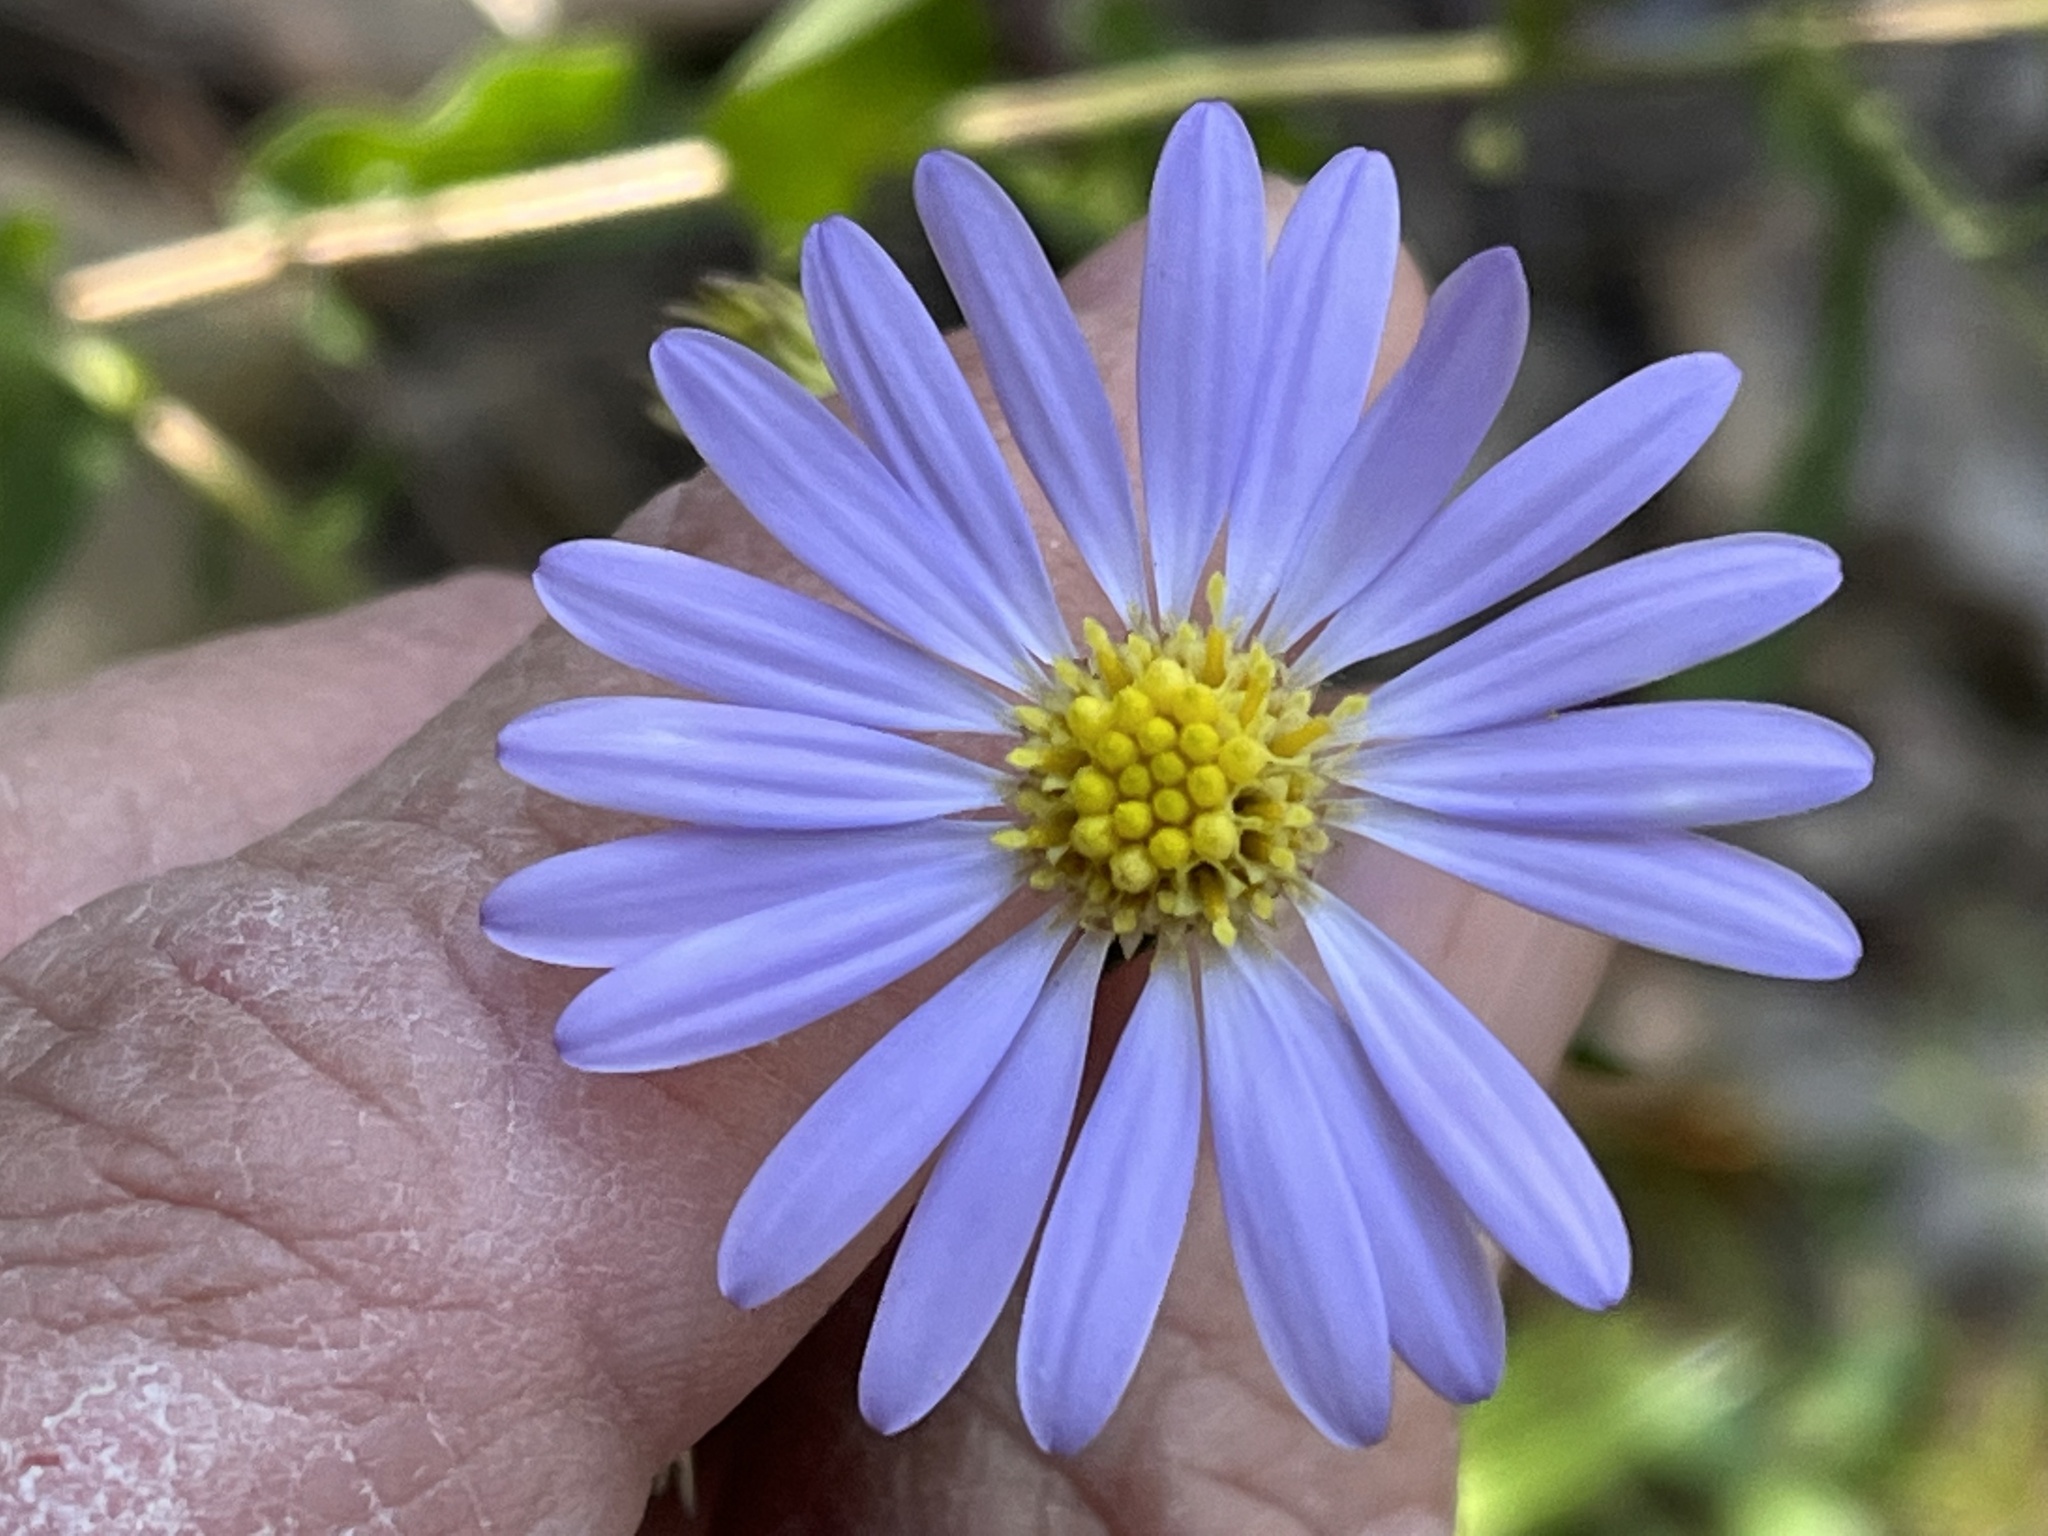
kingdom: Plantae
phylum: Tracheophyta
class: Magnoliopsida
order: Asterales
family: Asteraceae
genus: Symphyotrichum
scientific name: Symphyotrichum patens
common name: Late purple aster
